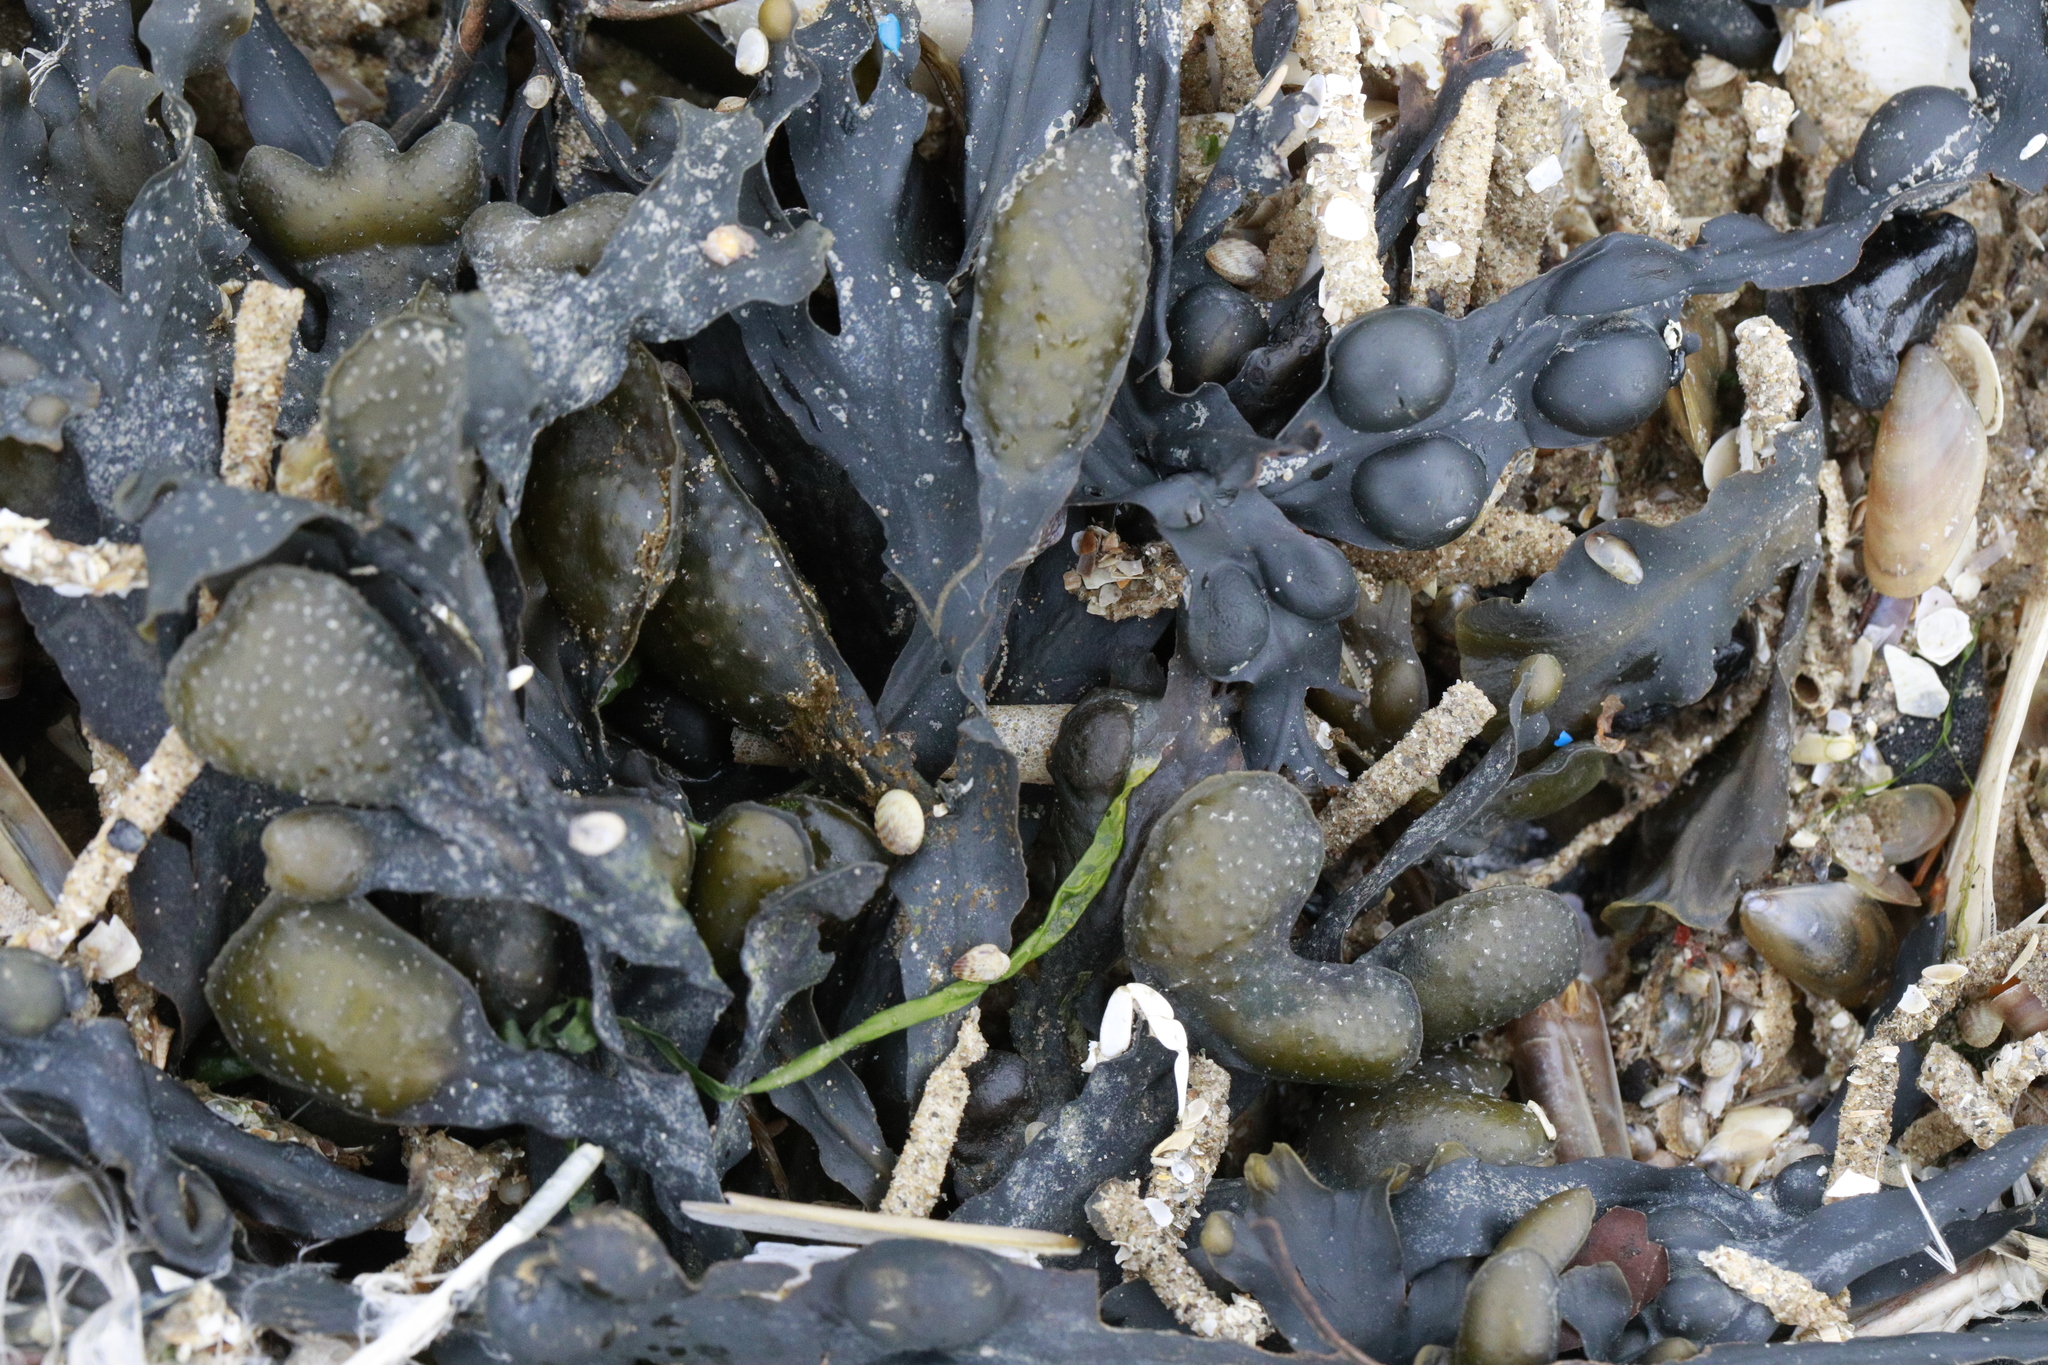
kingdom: Chromista
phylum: Ochrophyta
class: Phaeophyceae
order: Fucales
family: Fucaceae
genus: Fucus
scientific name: Fucus vesiculosus
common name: Bladder wrack
